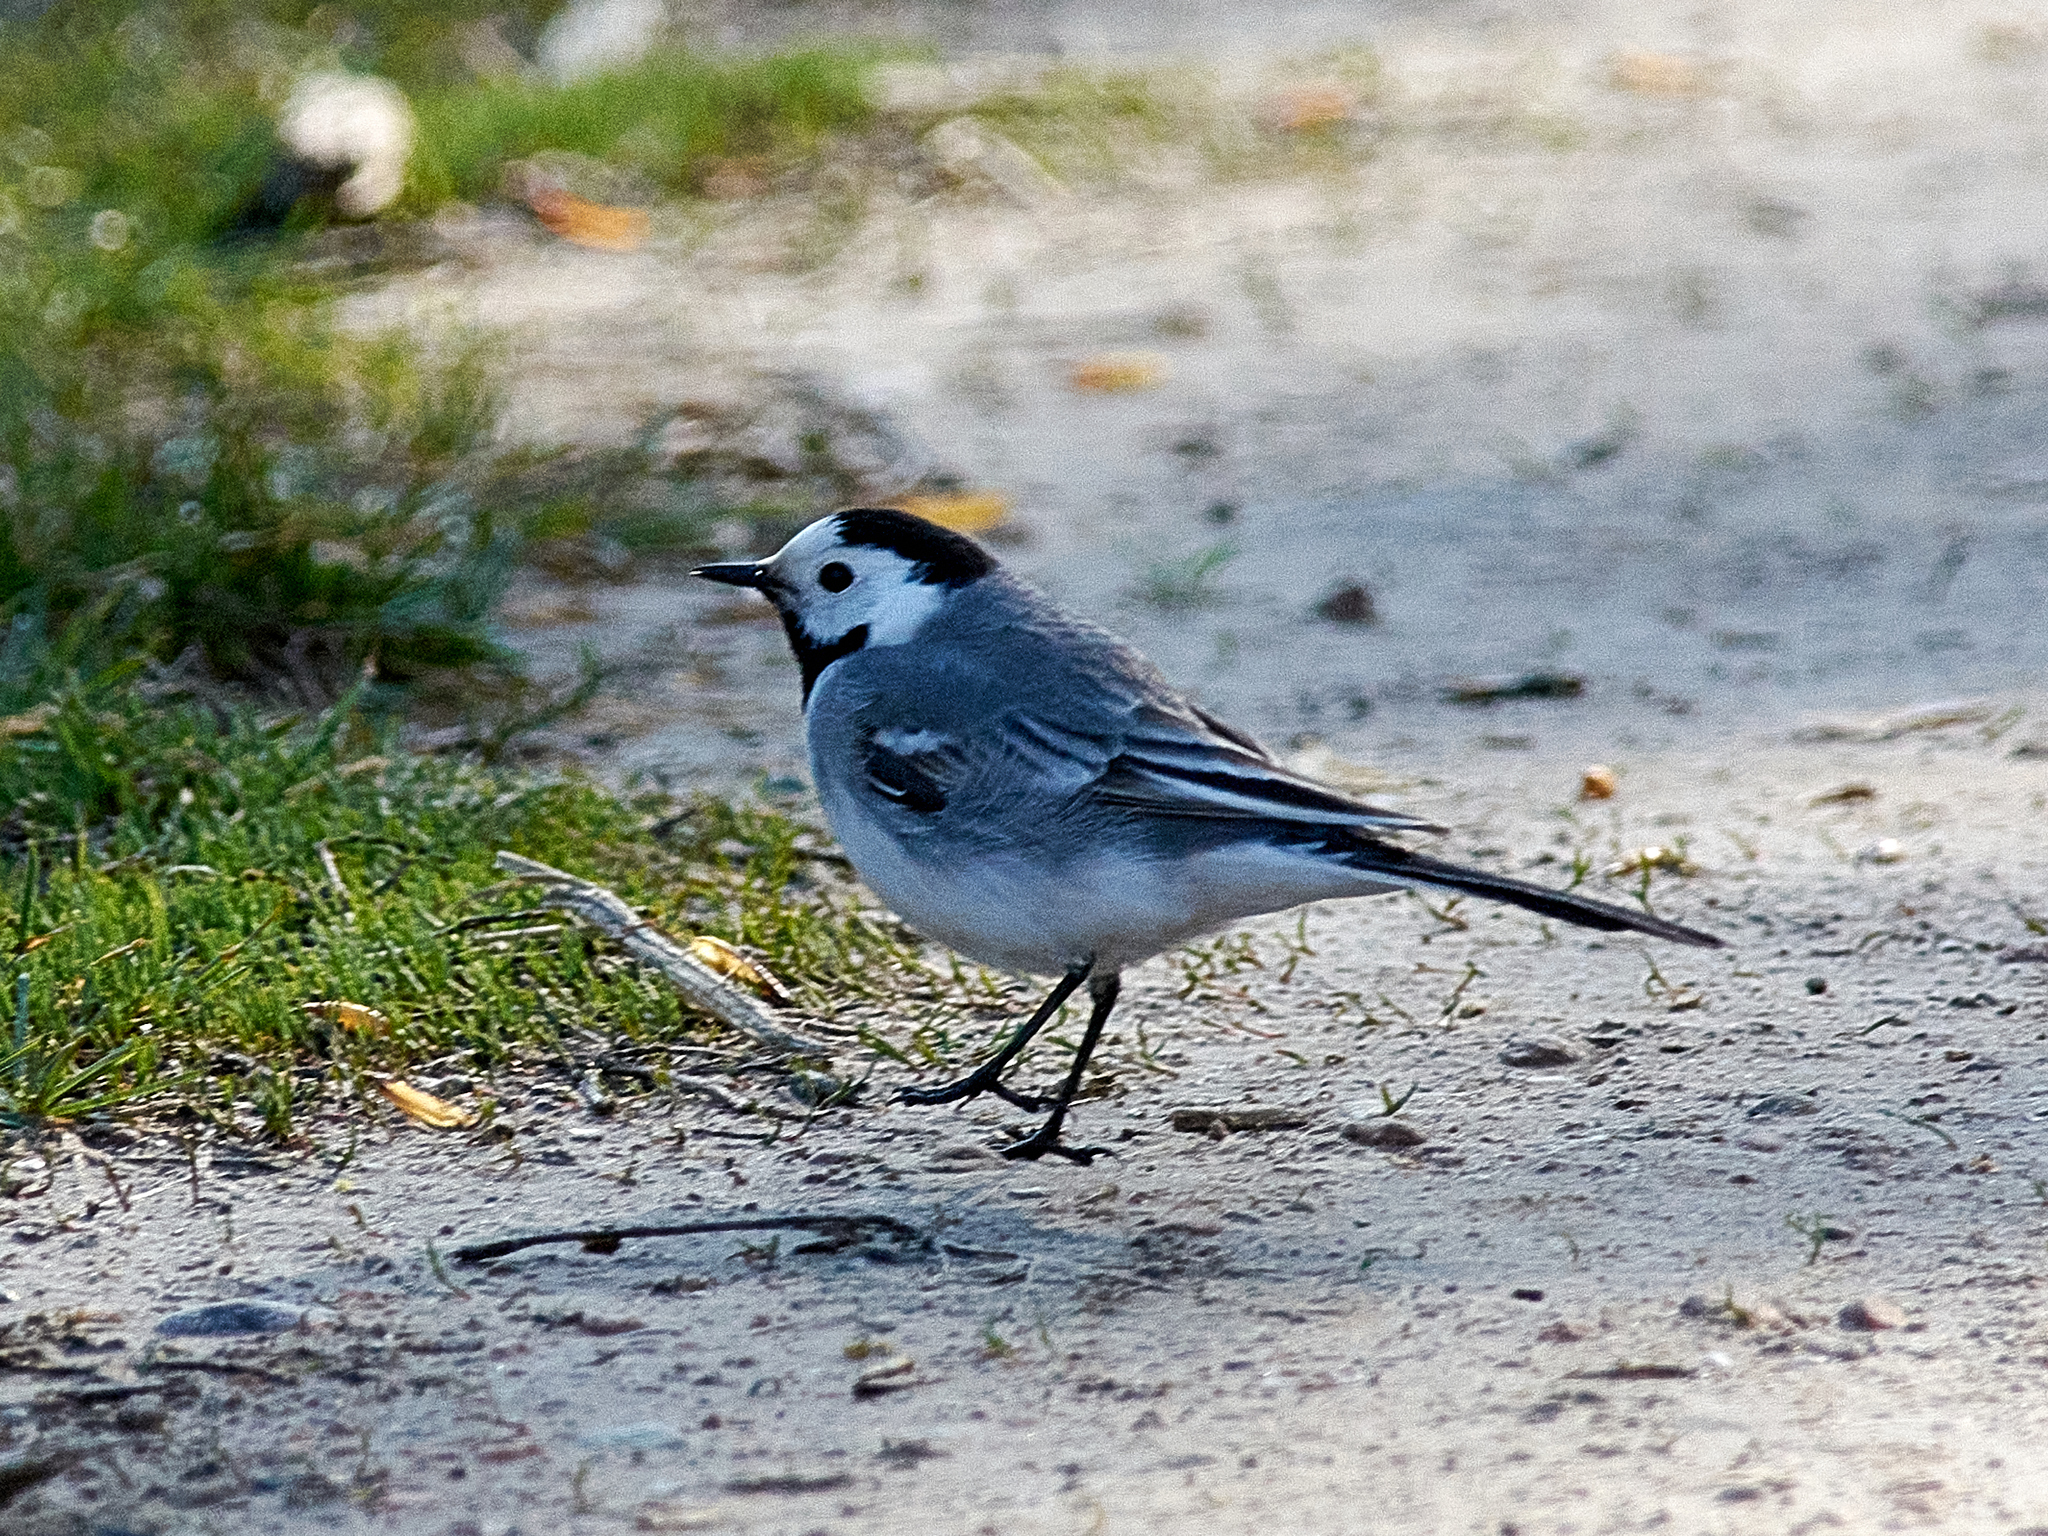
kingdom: Animalia
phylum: Chordata
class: Aves
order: Passeriformes
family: Motacillidae
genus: Motacilla
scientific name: Motacilla alba
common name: White wagtail
